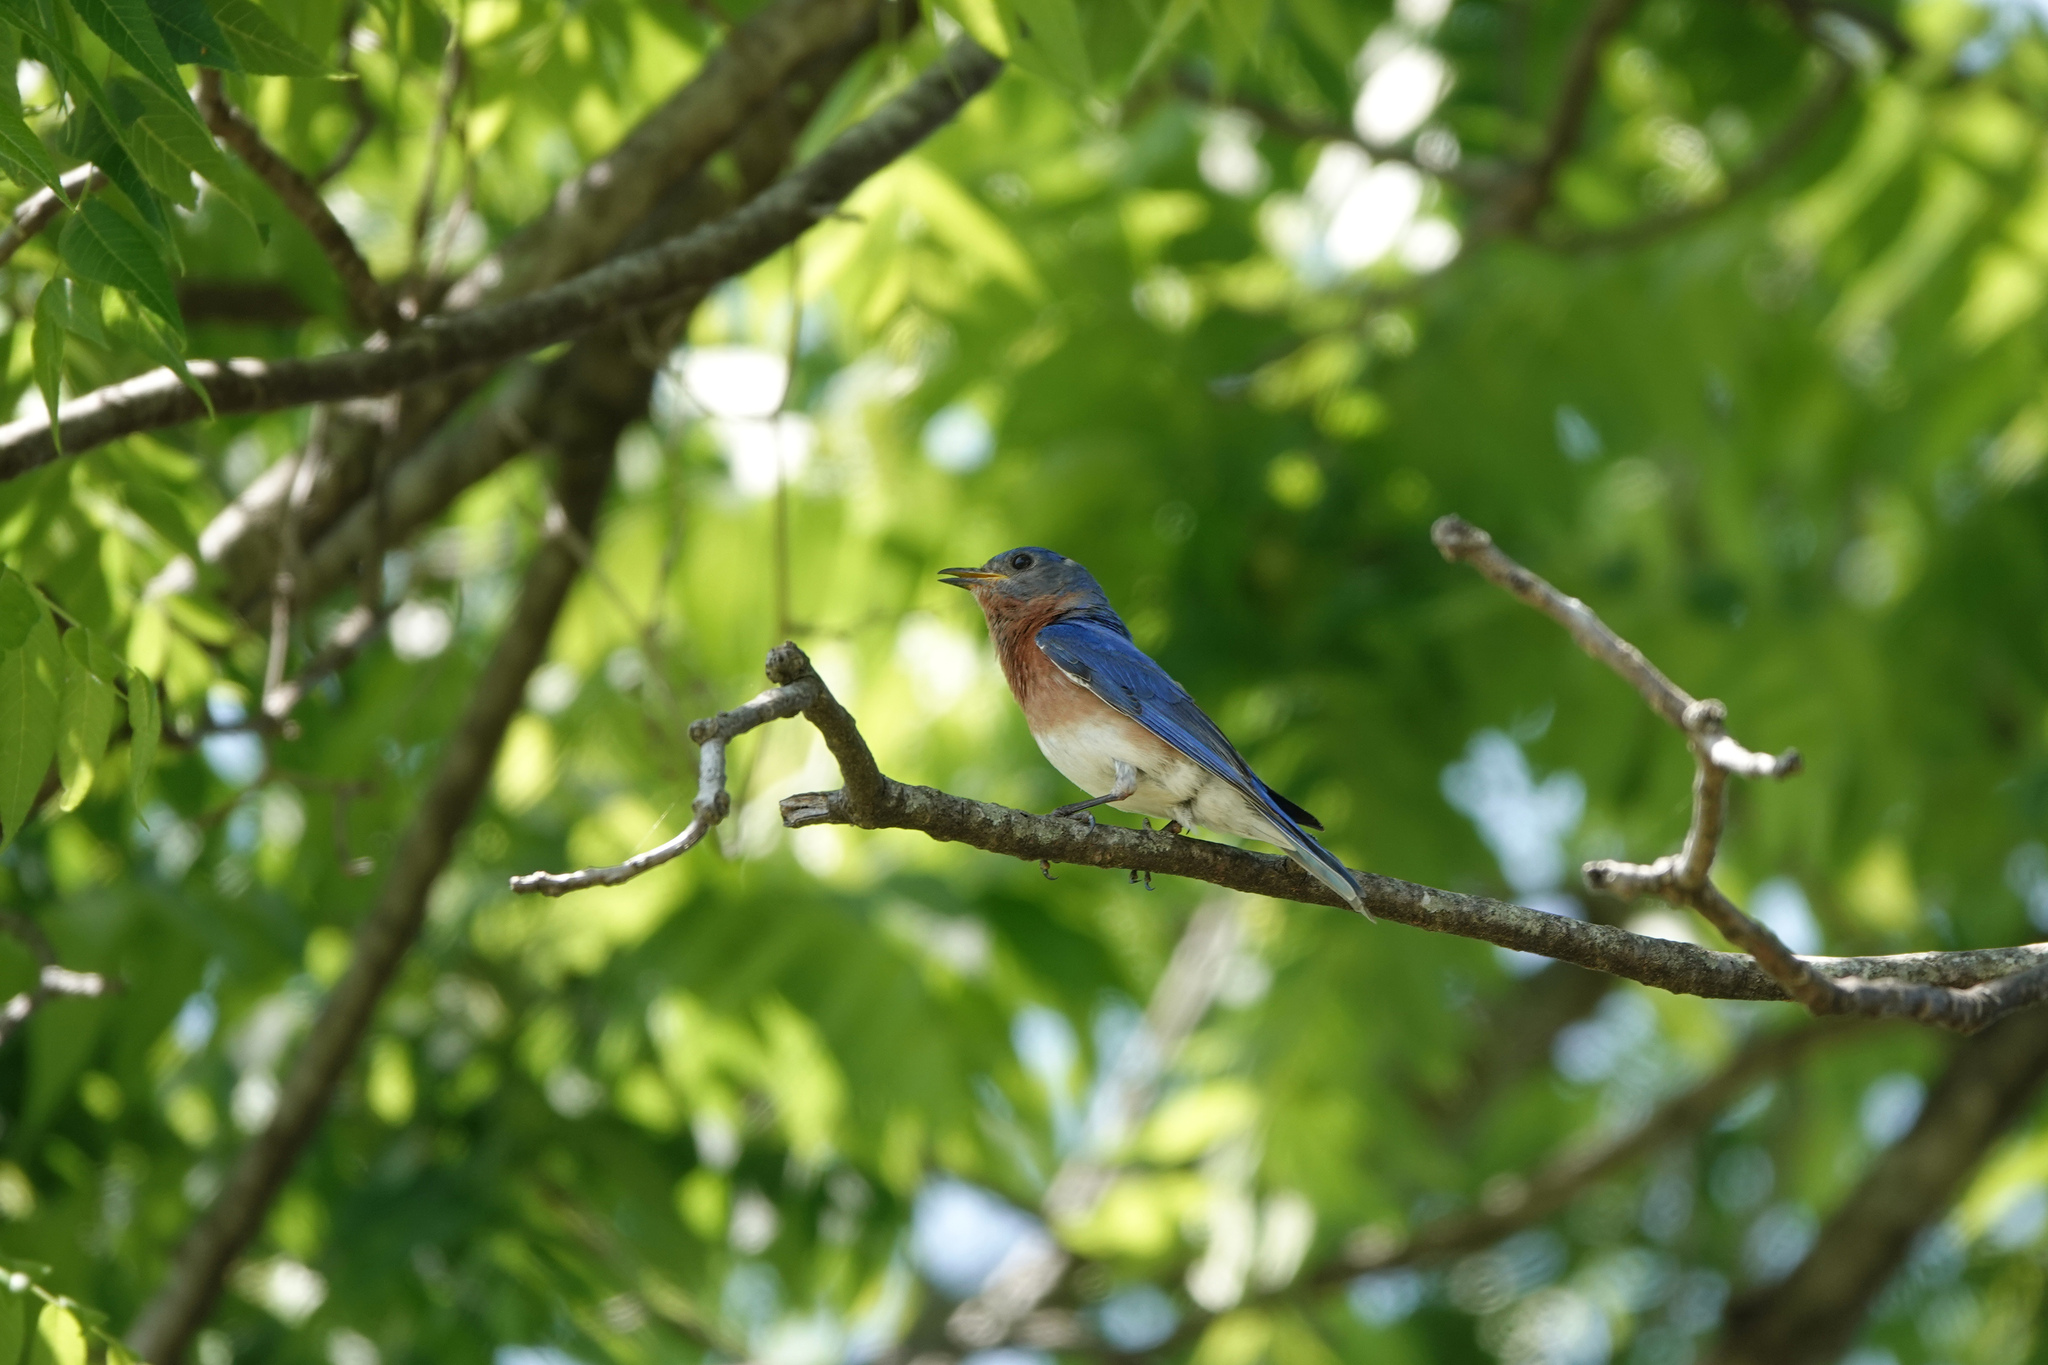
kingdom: Animalia
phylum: Chordata
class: Aves
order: Passeriformes
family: Turdidae
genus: Sialia
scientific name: Sialia sialis
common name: Eastern bluebird
